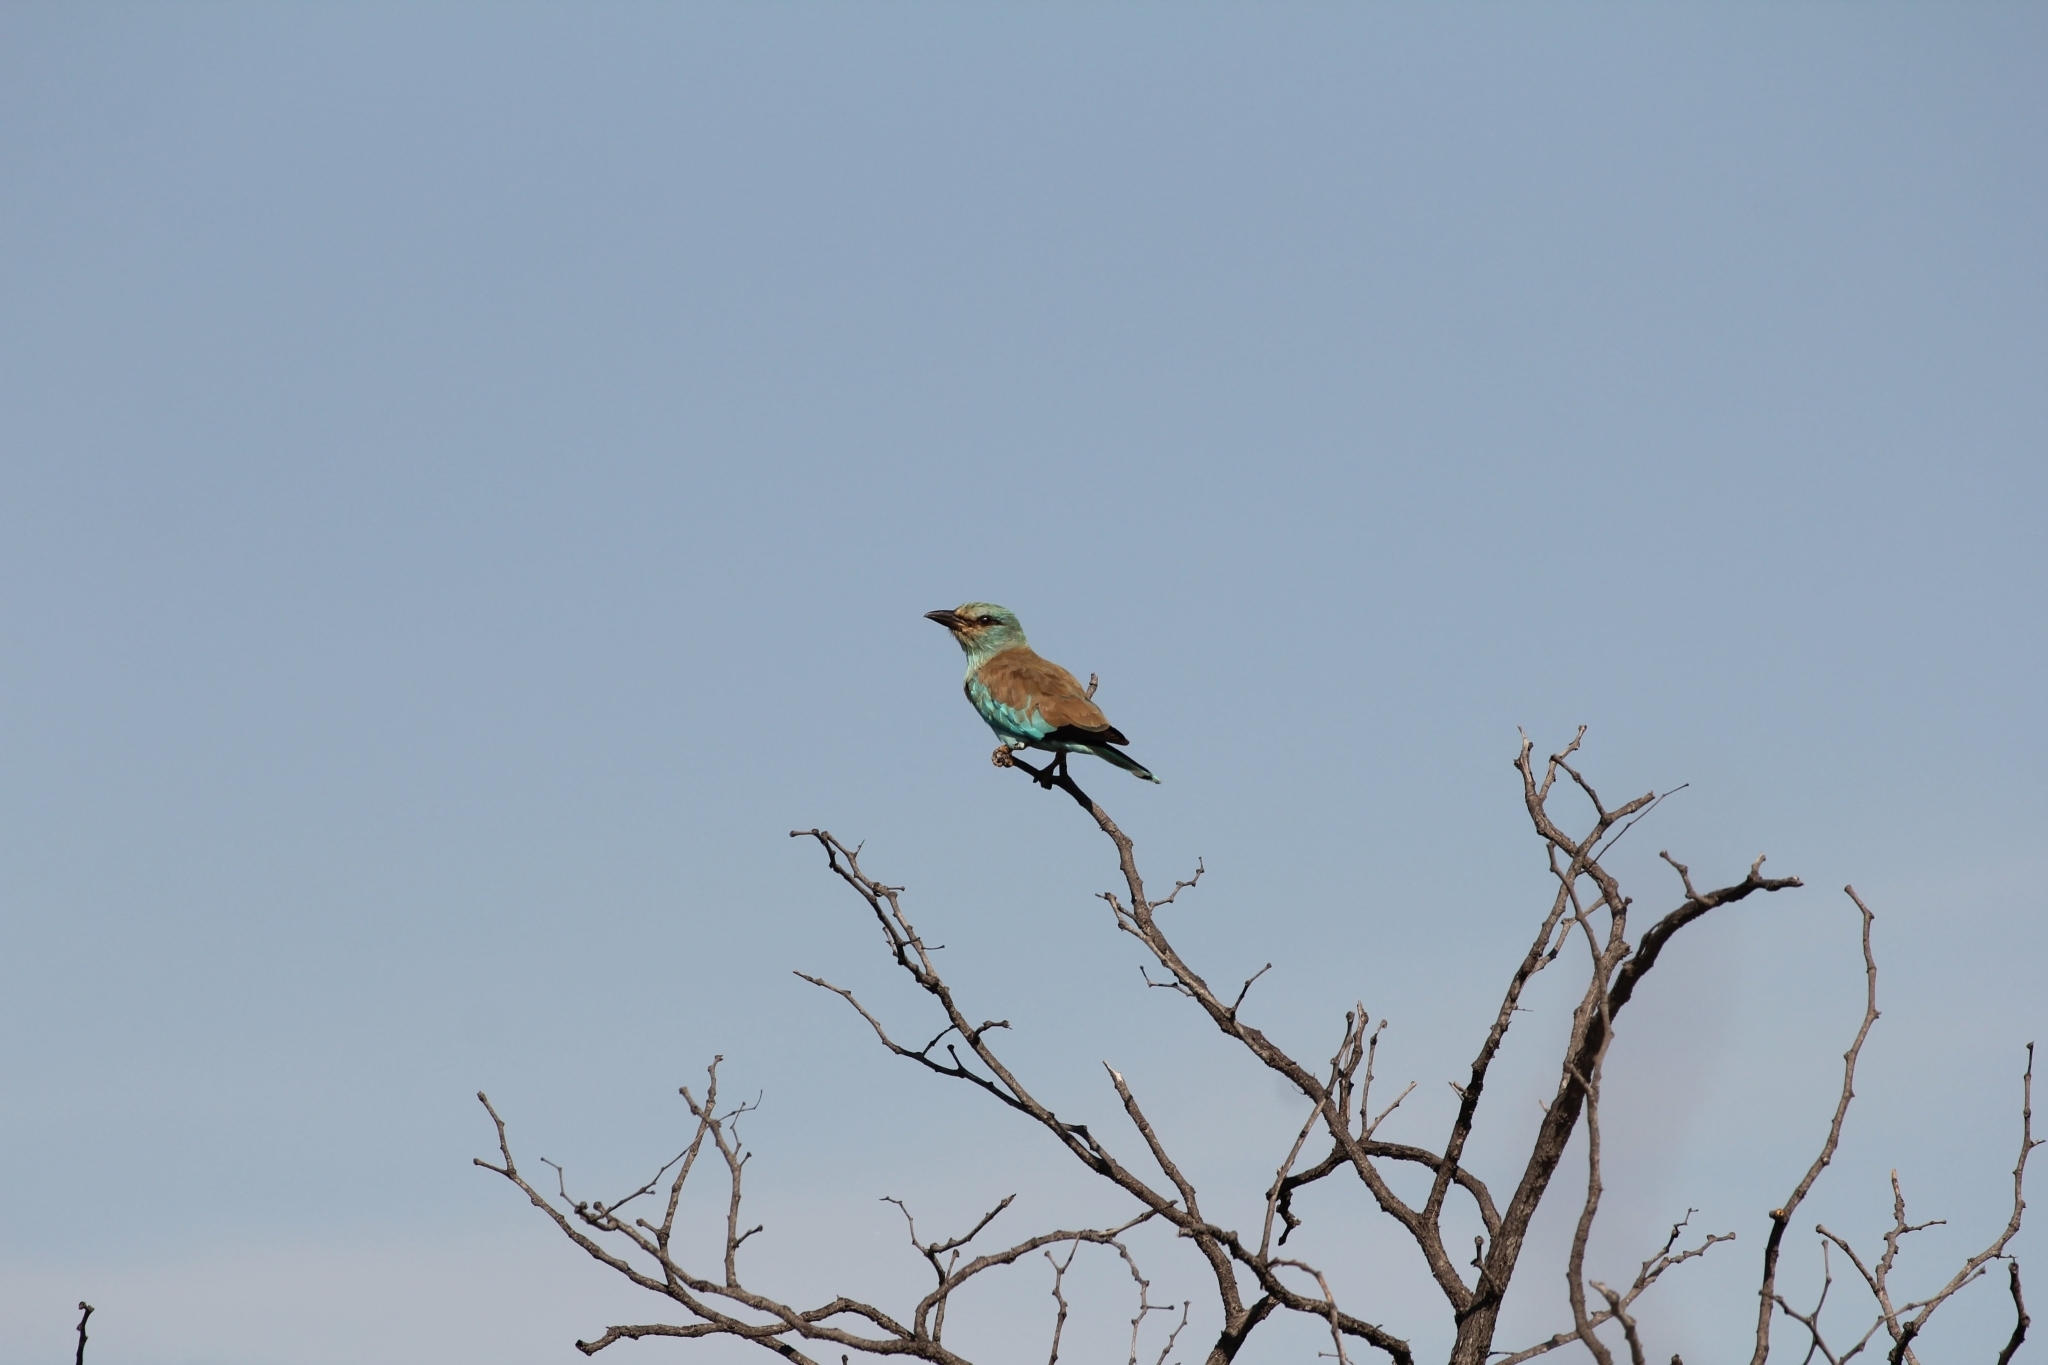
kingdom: Animalia
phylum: Chordata
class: Aves
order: Coraciiformes
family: Coraciidae
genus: Coracias
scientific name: Coracias garrulus
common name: European roller
